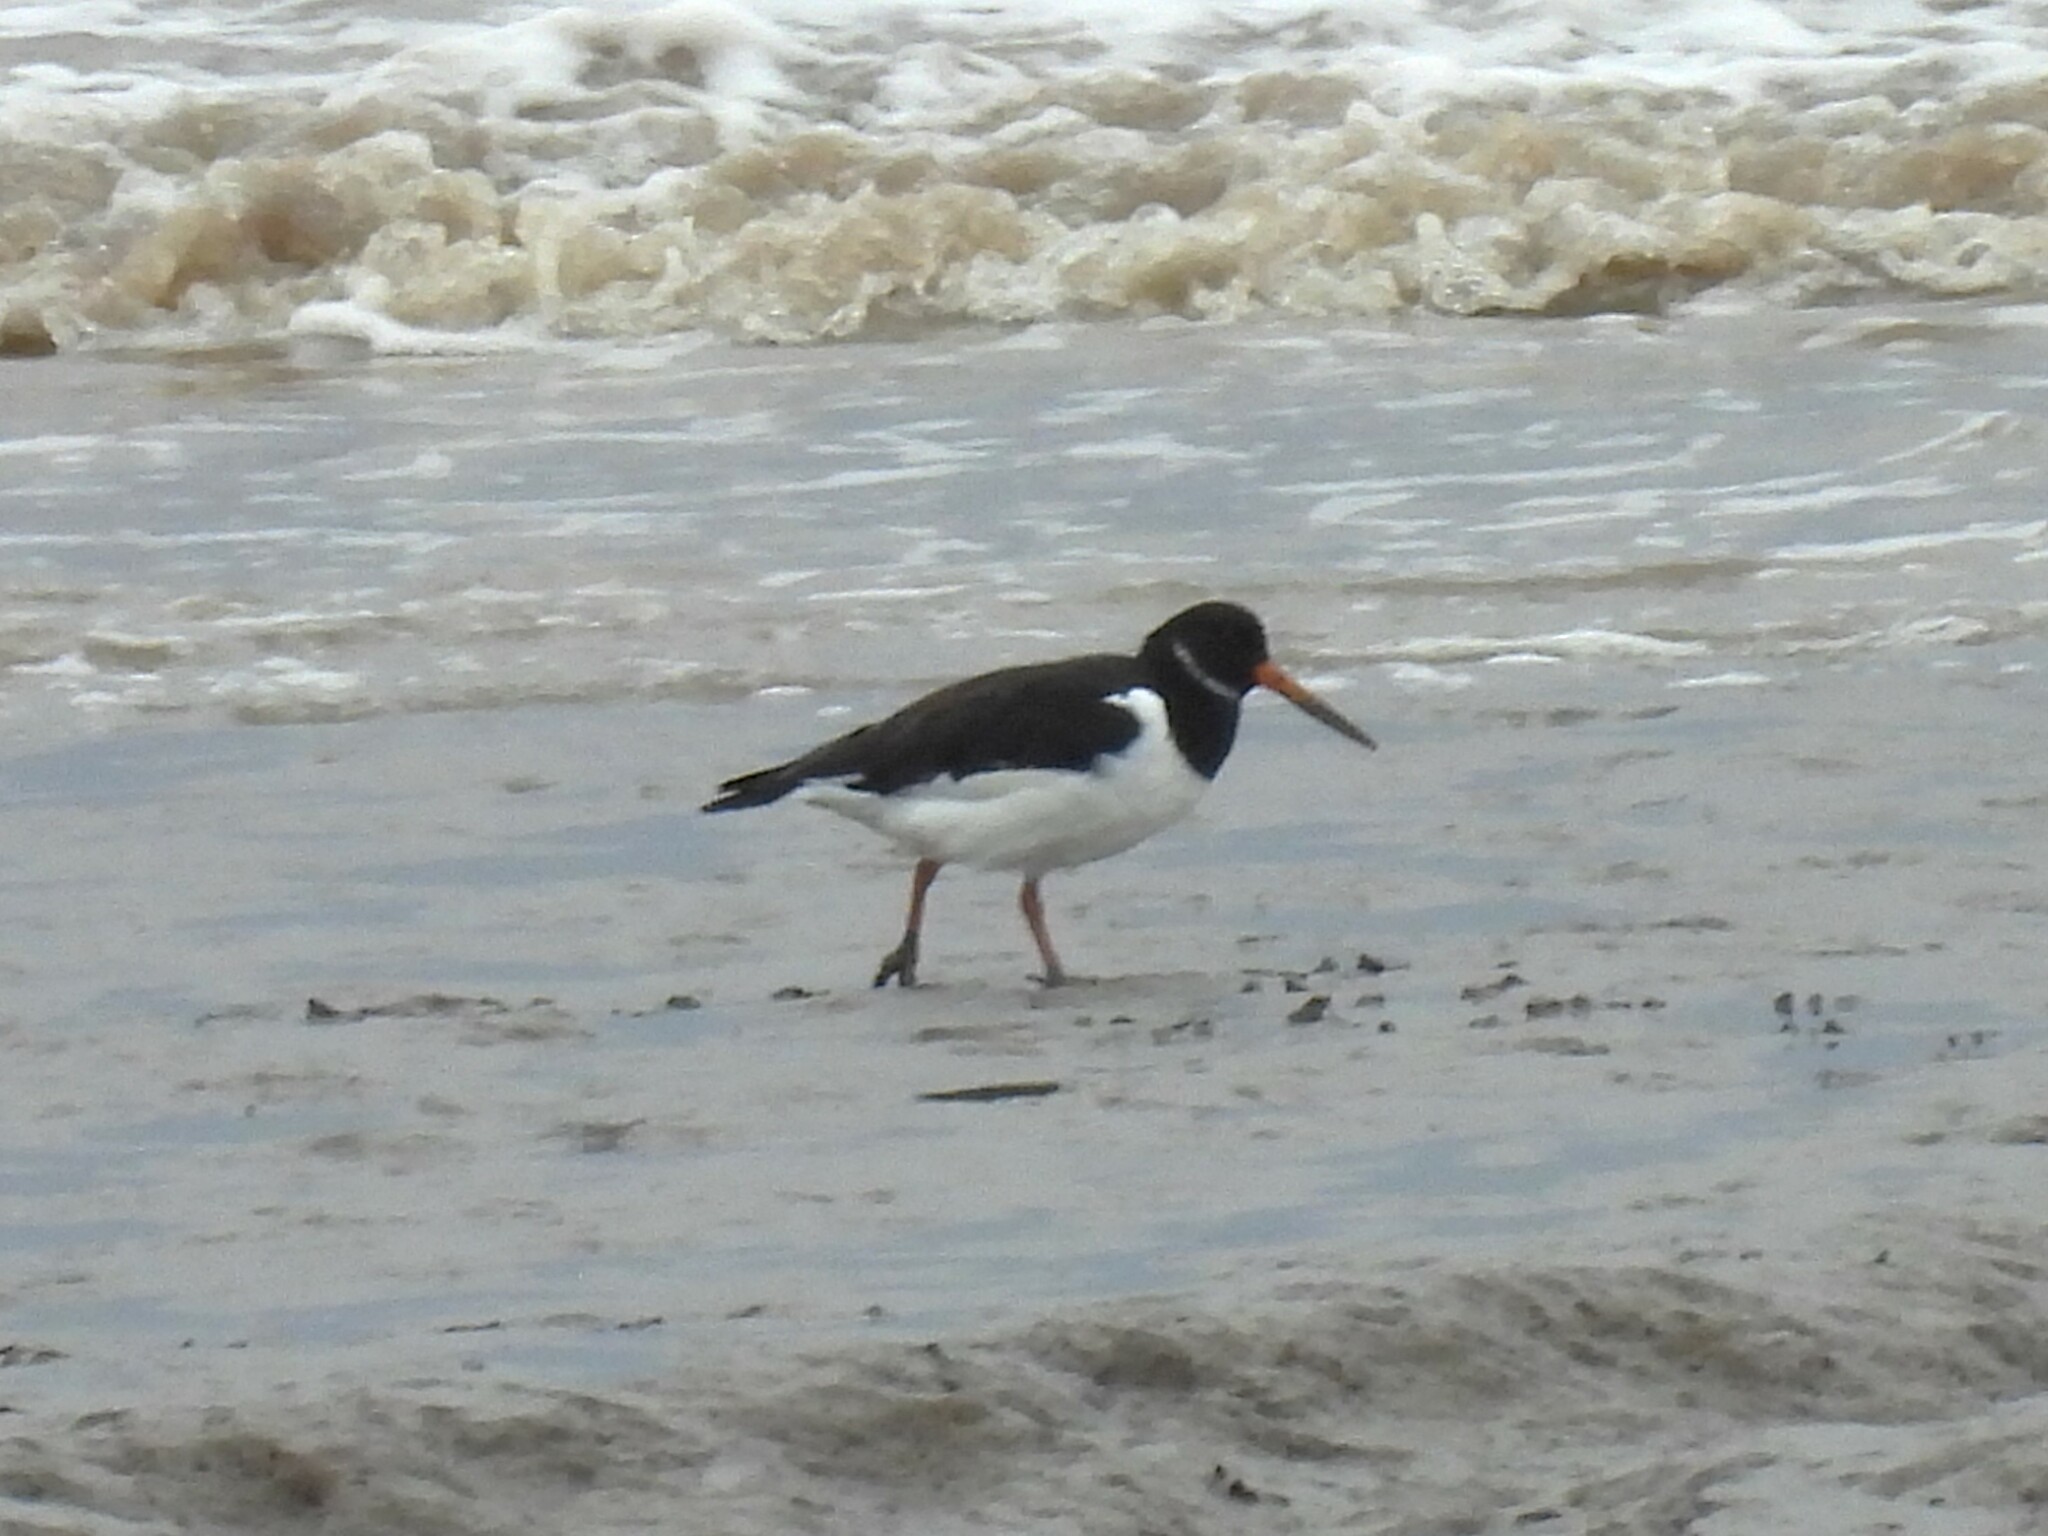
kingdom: Animalia
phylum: Chordata
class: Aves
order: Charadriiformes
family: Haematopodidae
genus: Haematopus
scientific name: Haematopus ostralegus
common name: Eurasian oystercatcher
